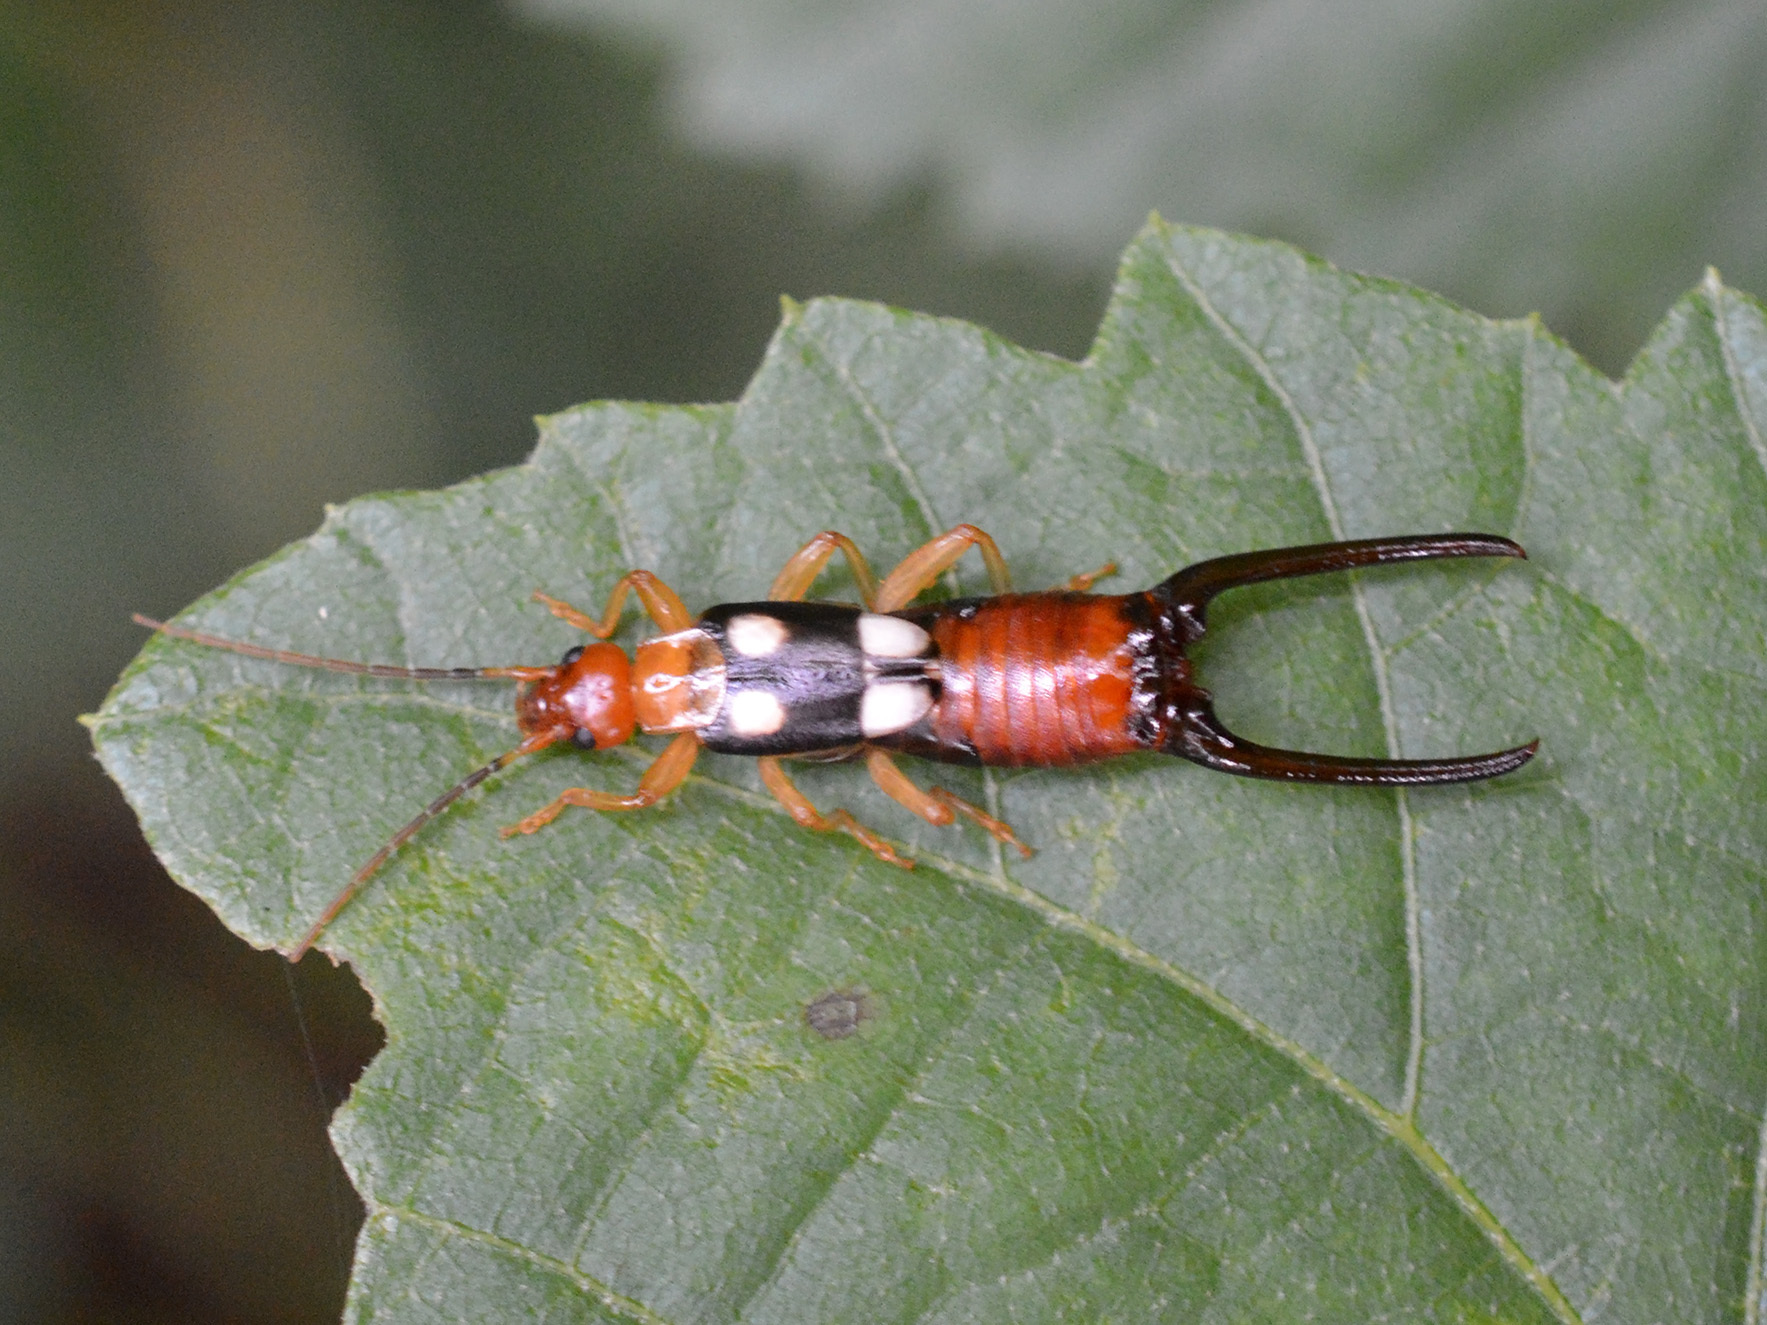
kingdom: Animalia
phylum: Arthropoda
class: Insecta
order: Dermaptera
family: Forficulidae
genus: Forficula
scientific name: Forficula smyrnensis
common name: Smyrna earwig
